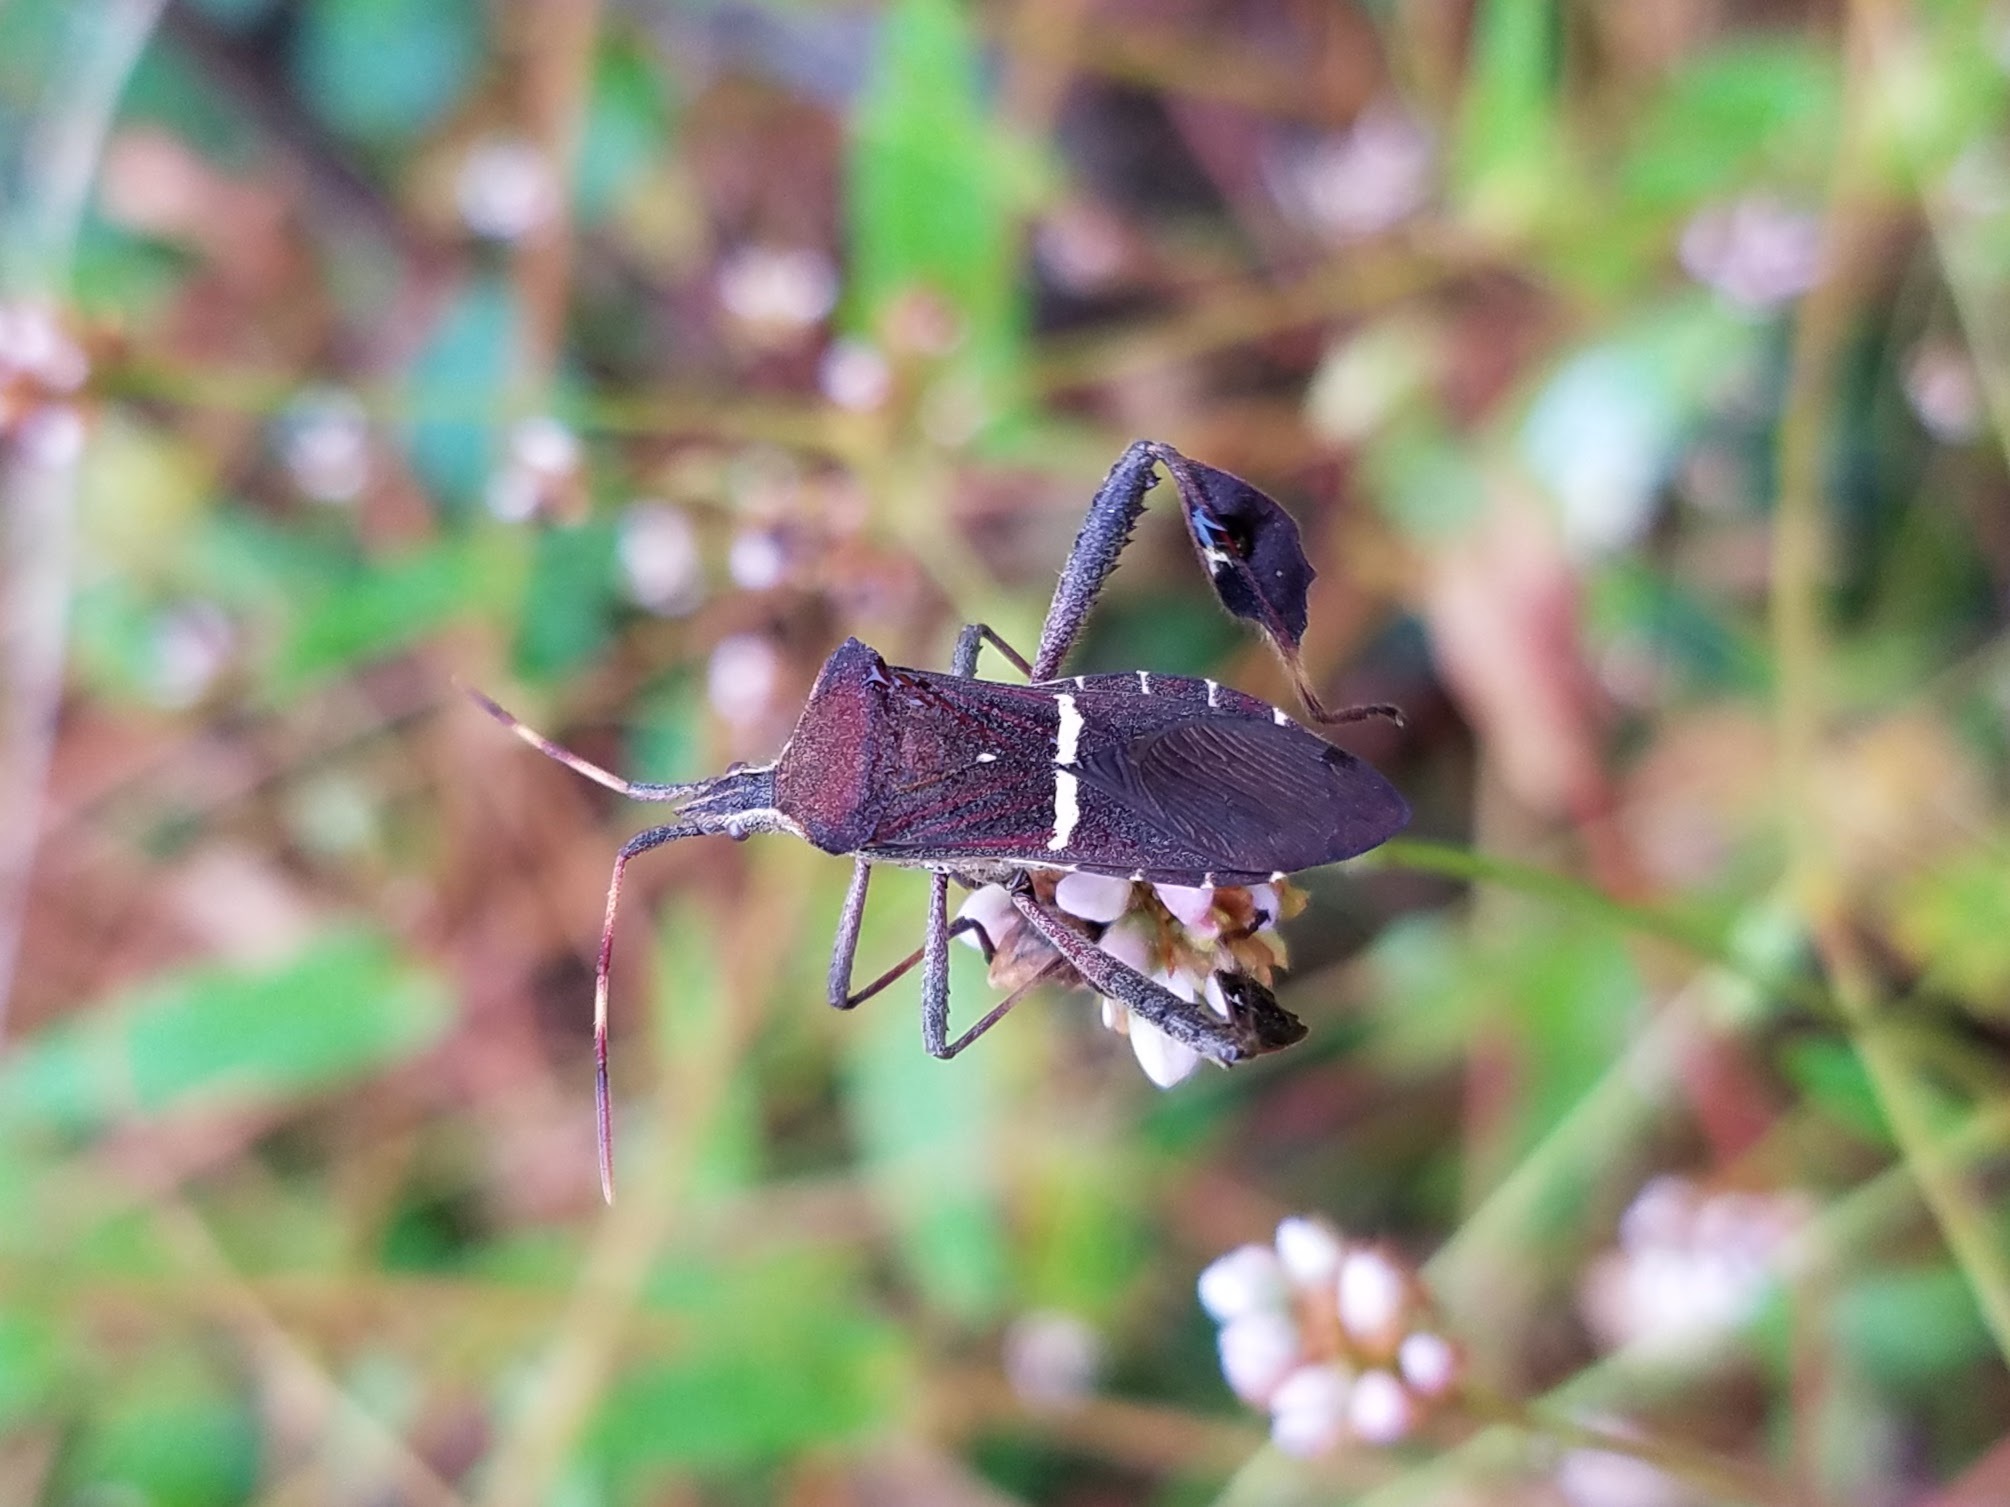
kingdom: Animalia
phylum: Arthropoda
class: Insecta
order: Hemiptera
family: Coreidae
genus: Leptoglossus
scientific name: Leptoglossus phyllopus
